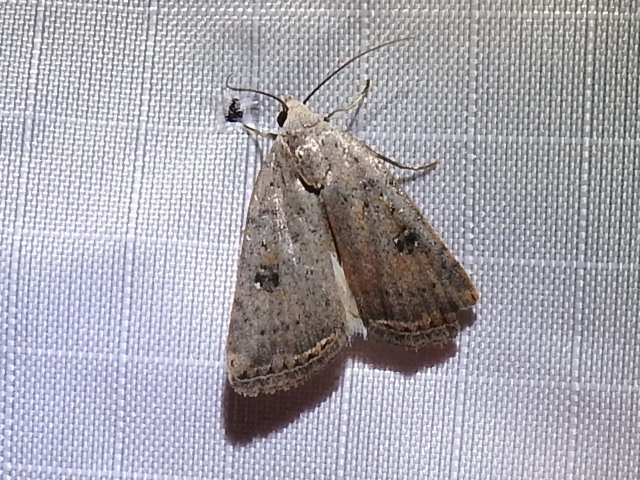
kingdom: Animalia
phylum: Arthropoda
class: Insecta
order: Lepidoptera
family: Noctuidae
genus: Micrathetis
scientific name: Micrathetis triplex
